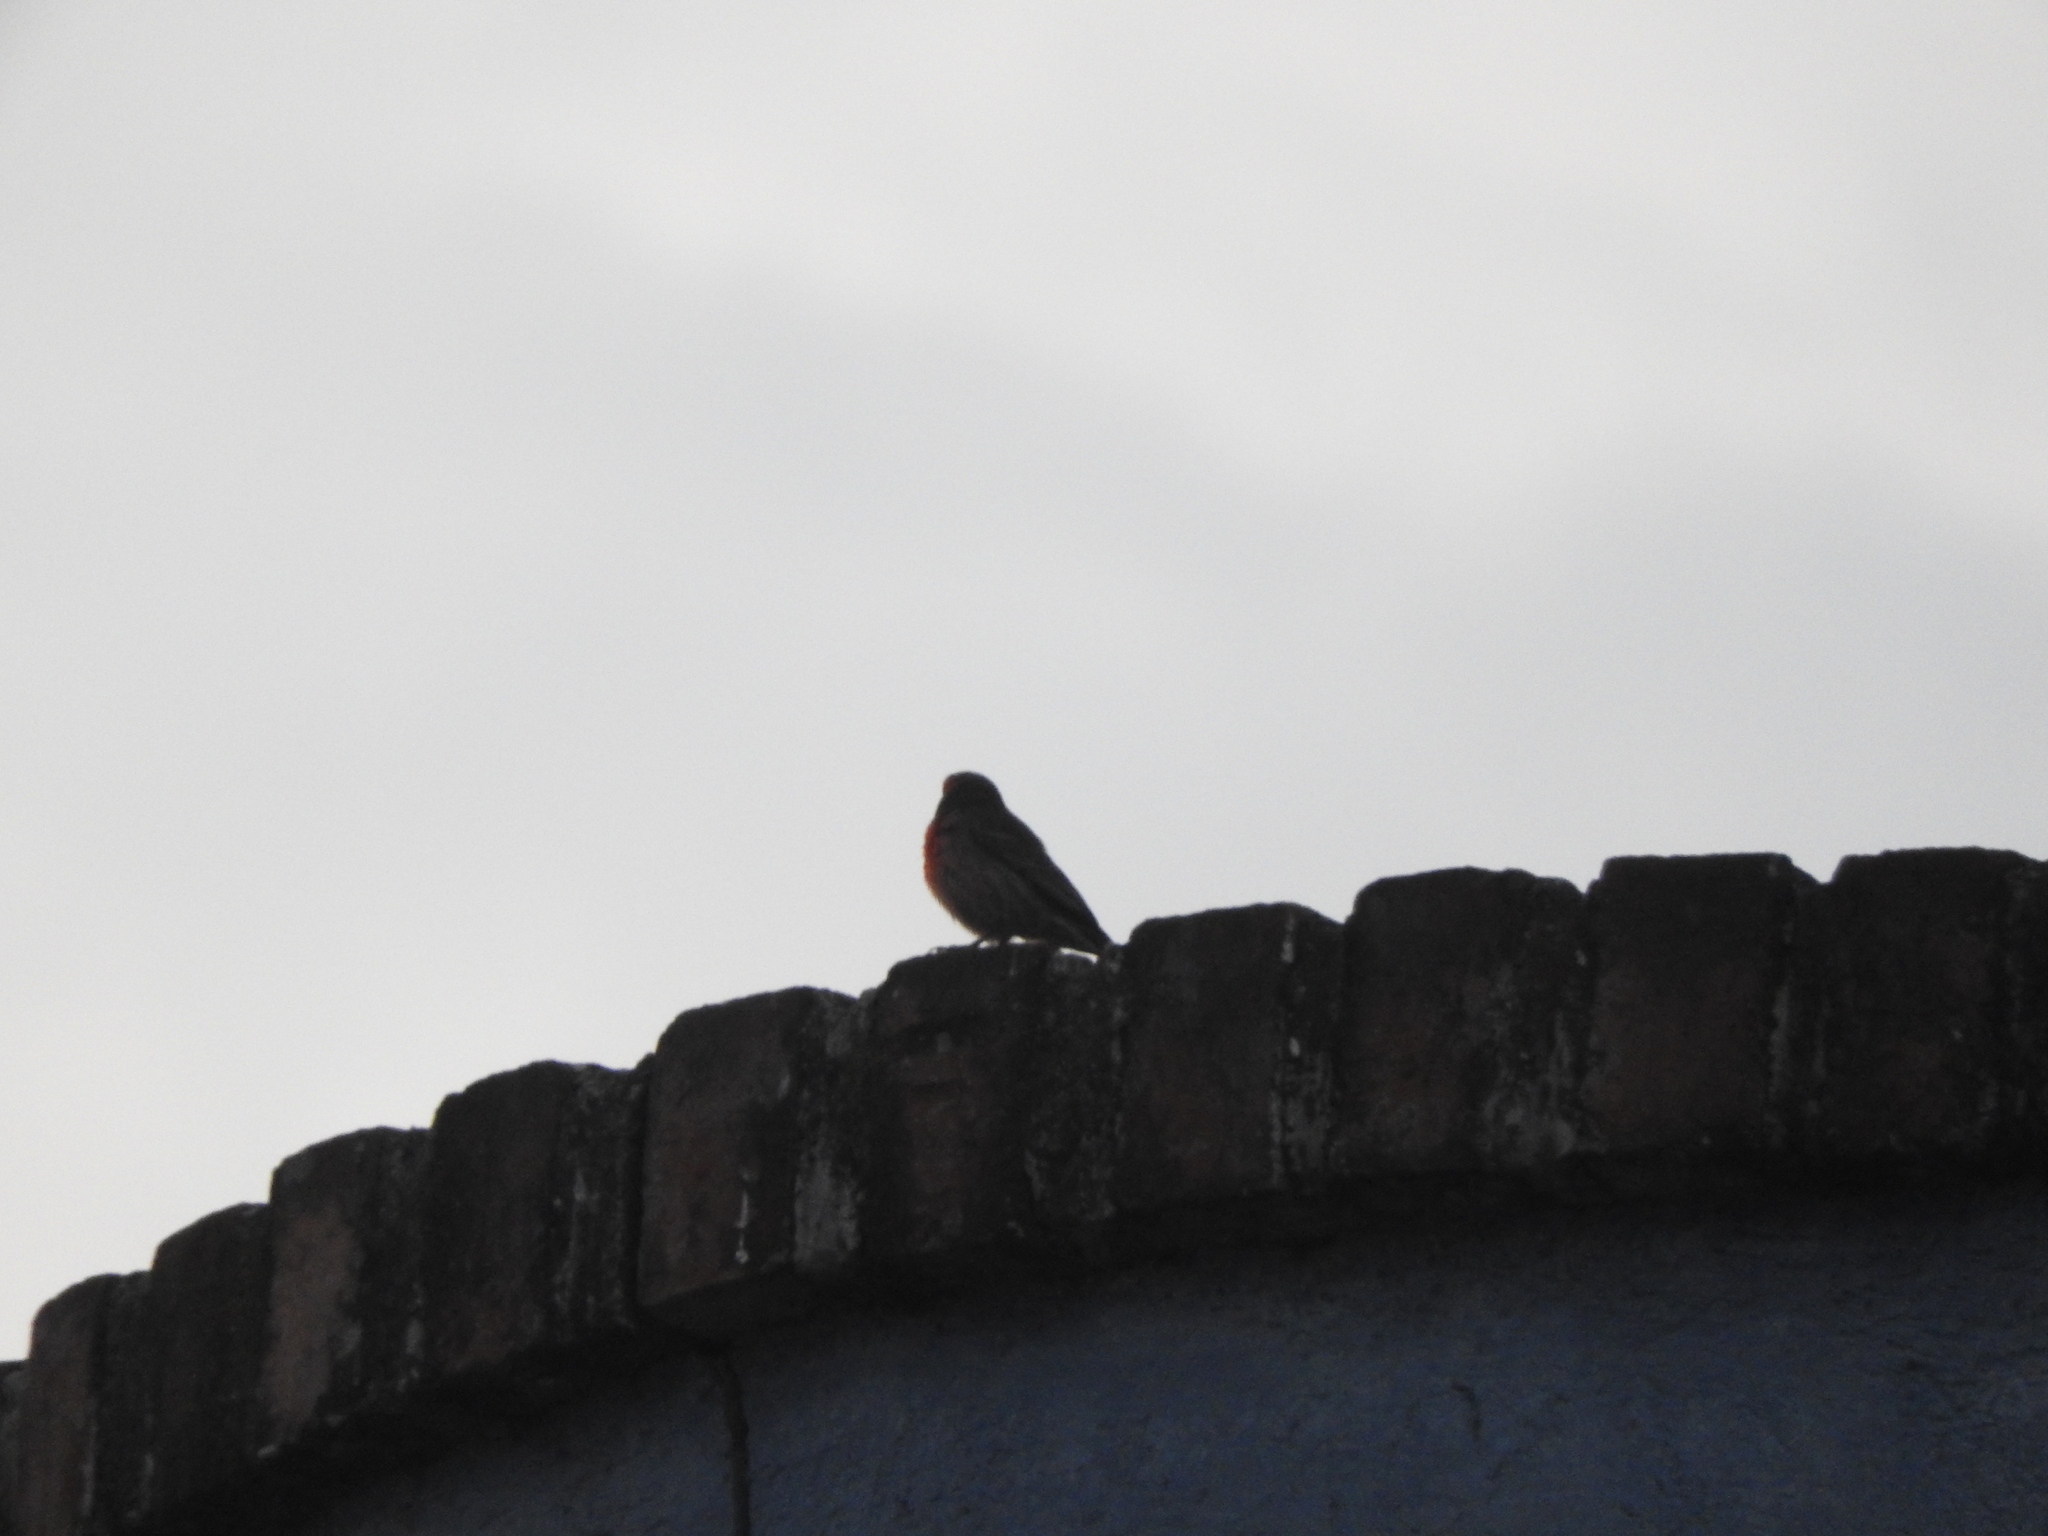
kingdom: Animalia
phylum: Chordata
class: Aves
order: Passeriformes
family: Fringillidae
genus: Haemorhous
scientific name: Haemorhous mexicanus
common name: House finch
